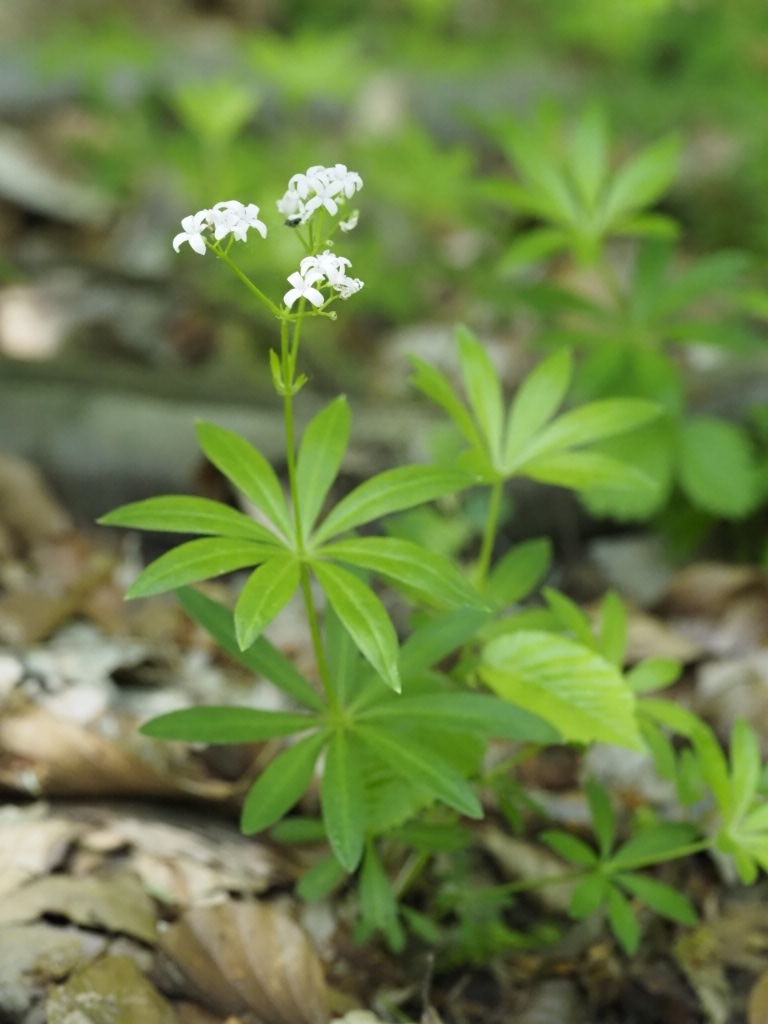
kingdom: Plantae
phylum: Tracheophyta
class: Magnoliopsida
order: Gentianales
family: Rubiaceae
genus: Galium
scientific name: Galium odoratum
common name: Sweet woodruff
